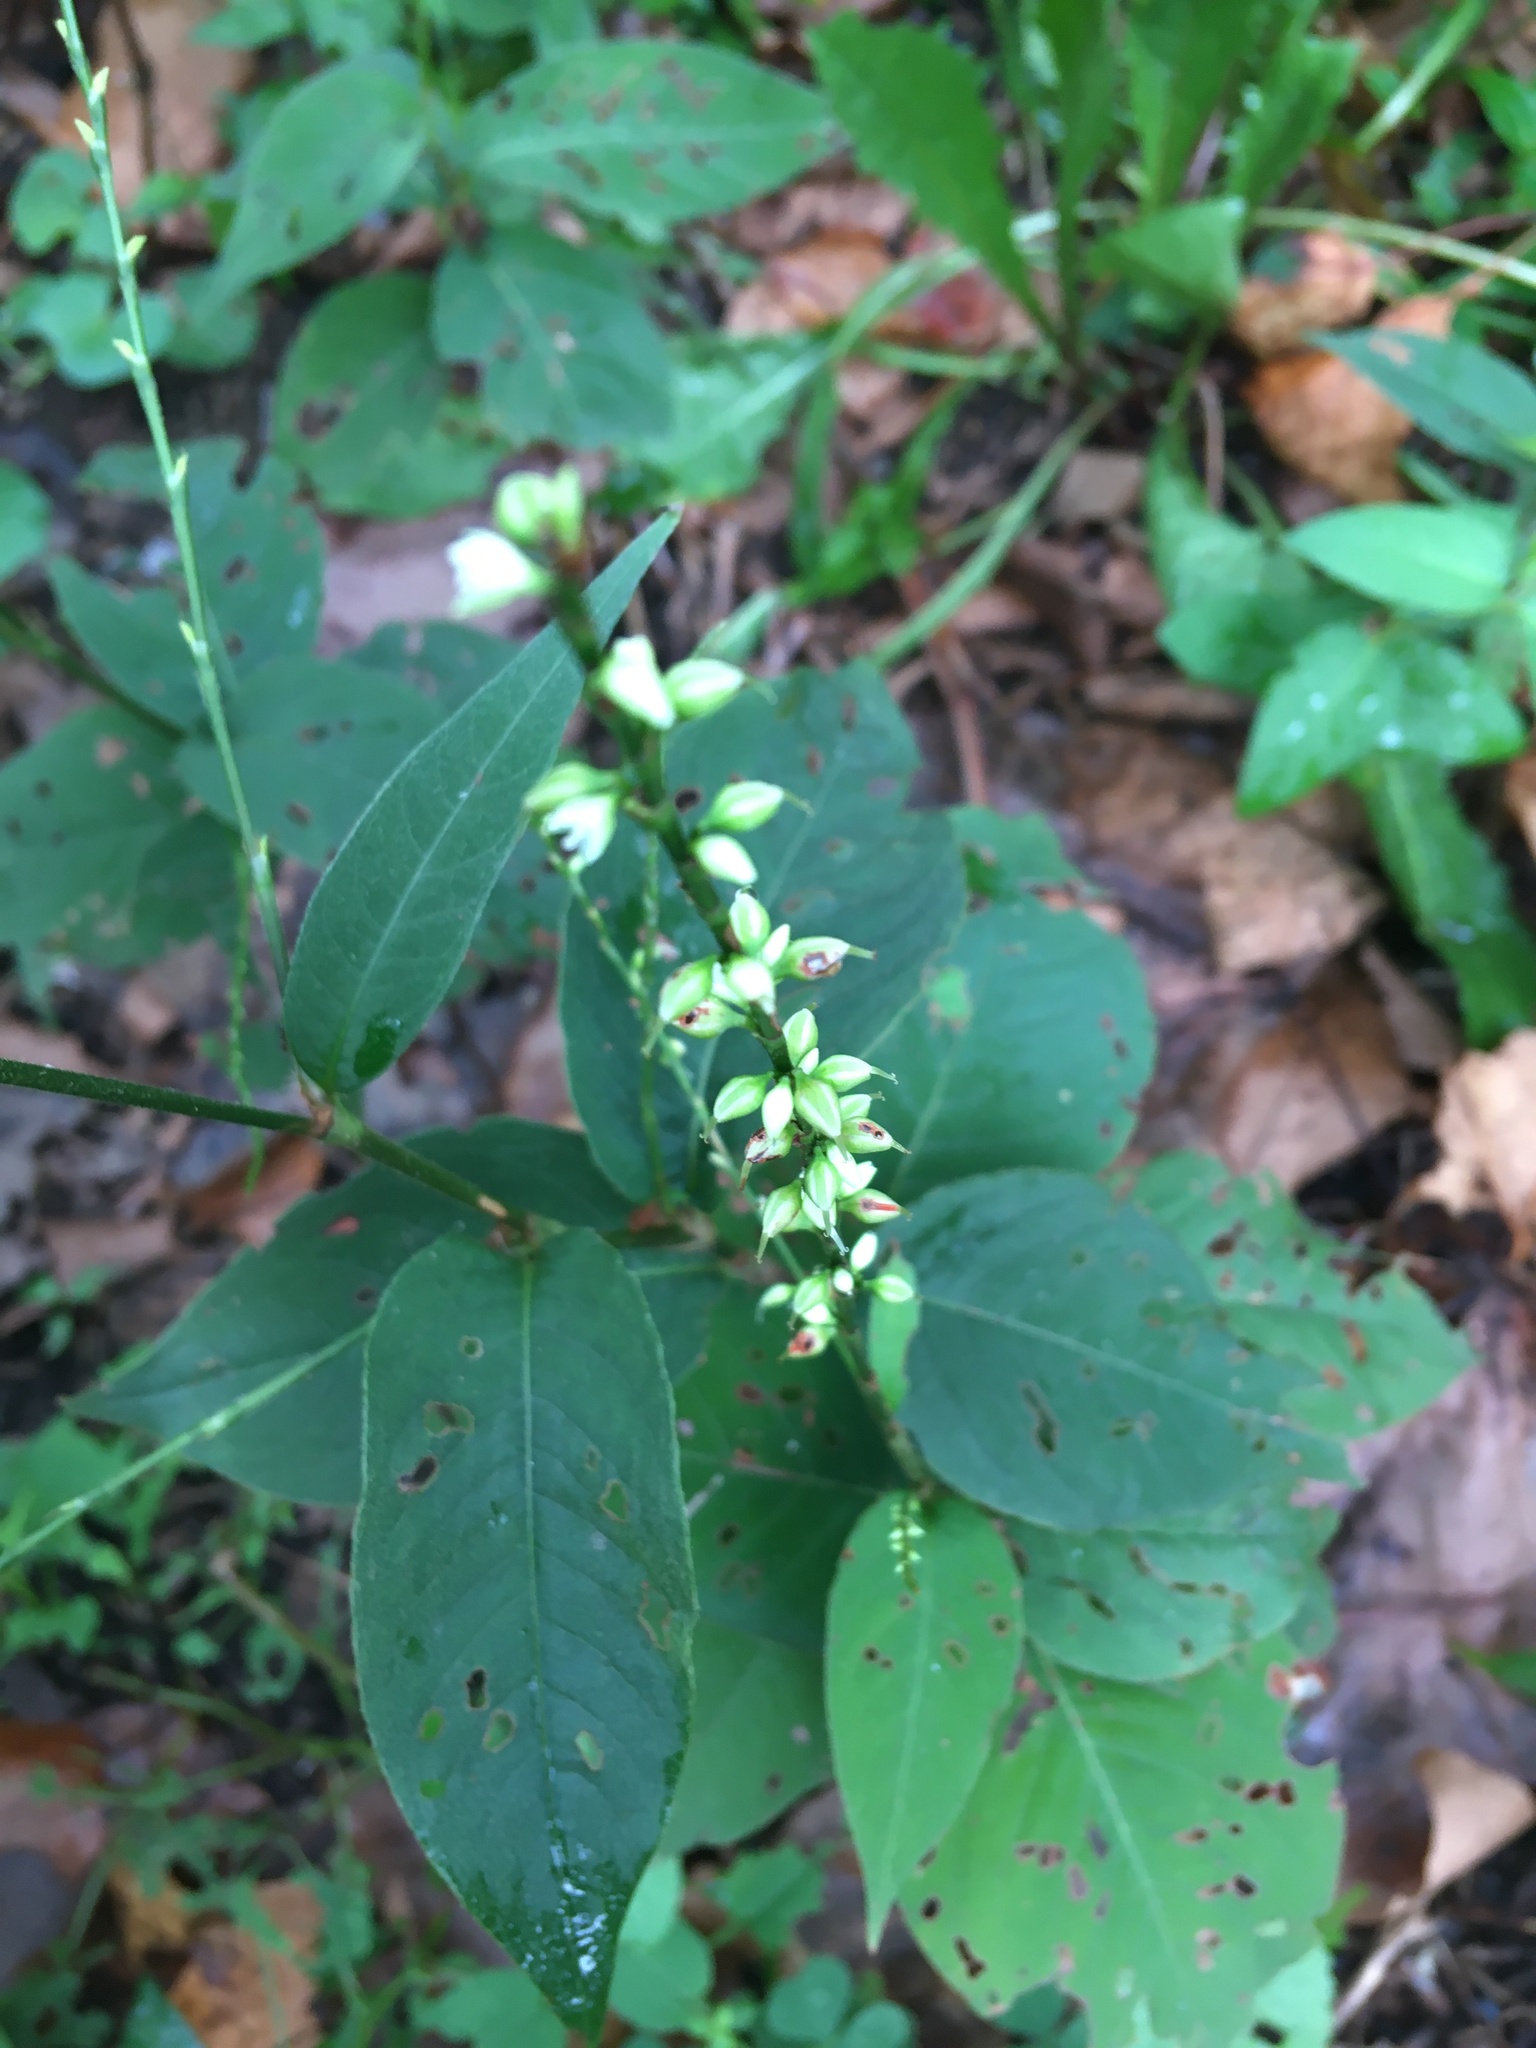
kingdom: Plantae
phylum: Tracheophyta
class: Magnoliopsida
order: Caryophyllales
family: Polygonaceae
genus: Persicaria
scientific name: Persicaria virginiana
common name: Jumpseed
